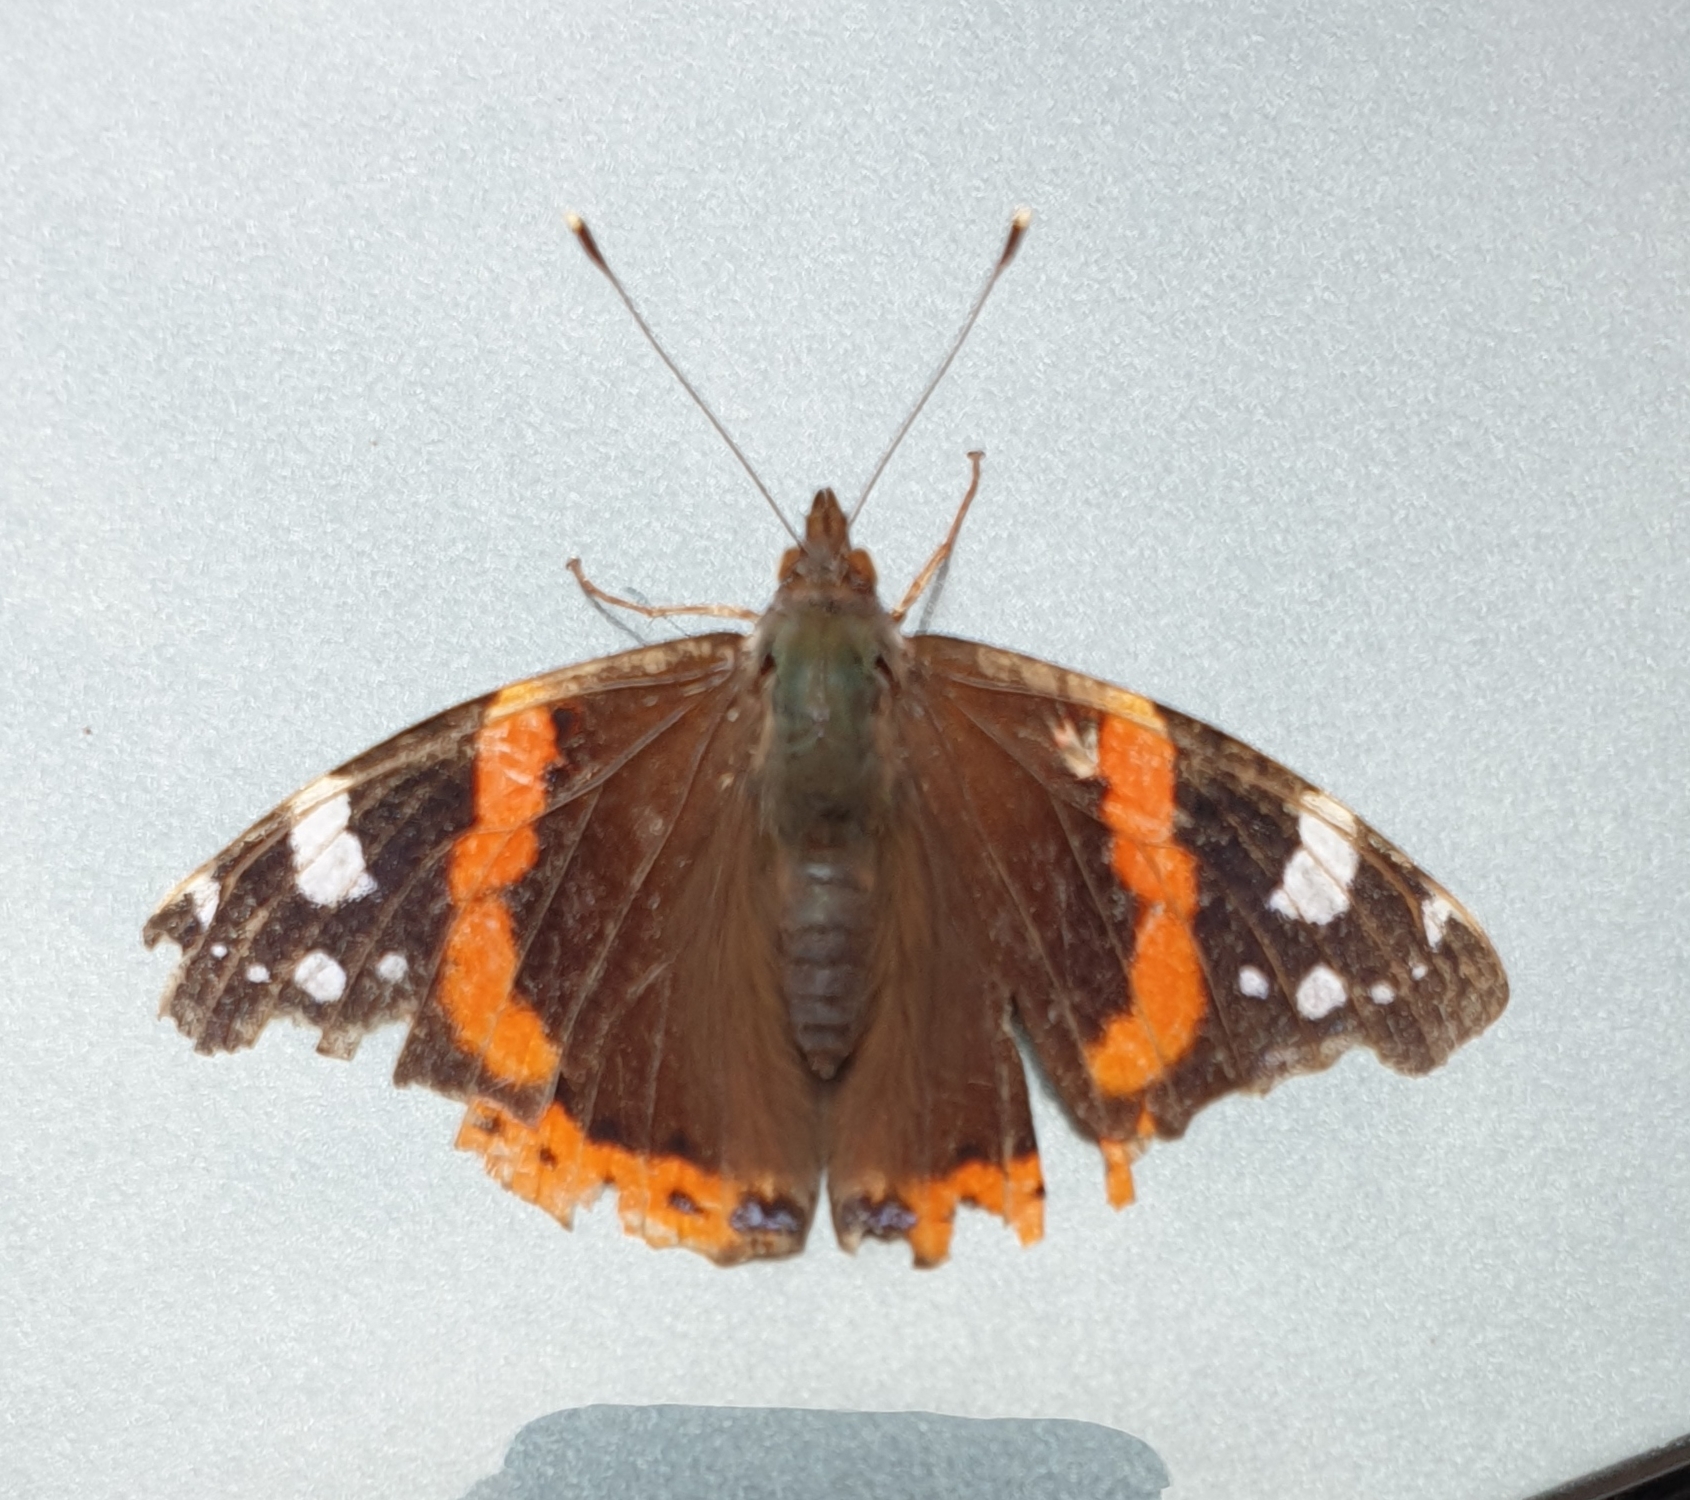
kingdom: Animalia
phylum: Arthropoda
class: Insecta
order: Lepidoptera
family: Nymphalidae
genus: Vanessa
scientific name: Vanessa atalanta
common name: Red admiral
